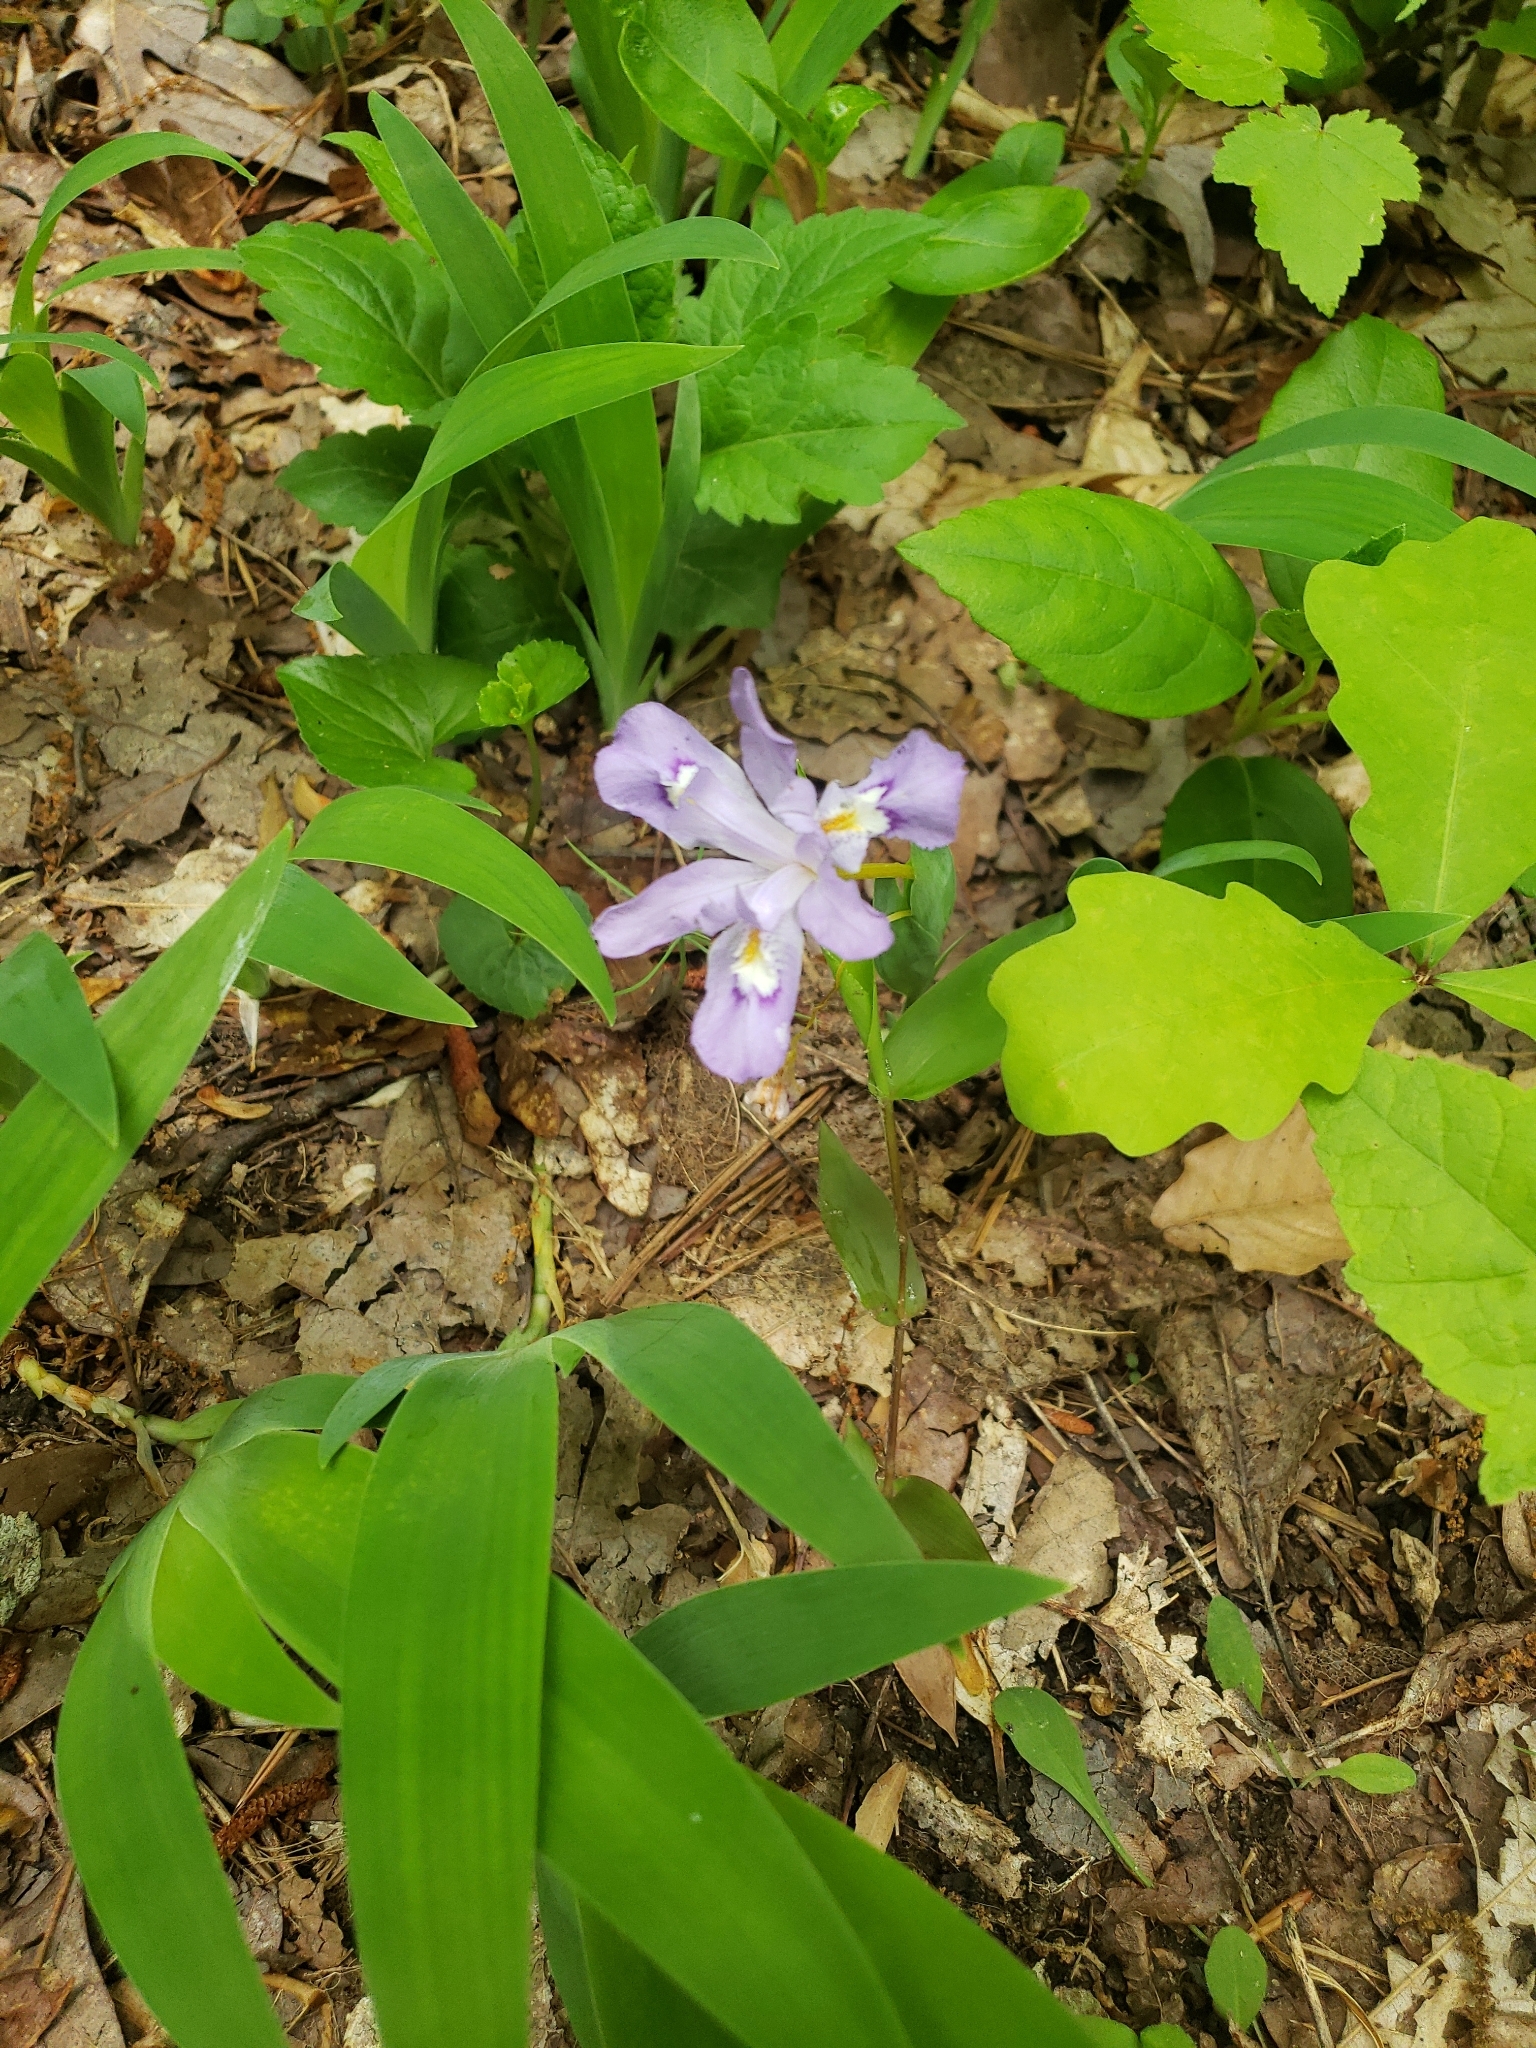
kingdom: Plantae
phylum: Tracheophyta
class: Liliopsida
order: Asparagales
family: Iridaceae
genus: Iris
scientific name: Iris cristata
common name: Crested iris
